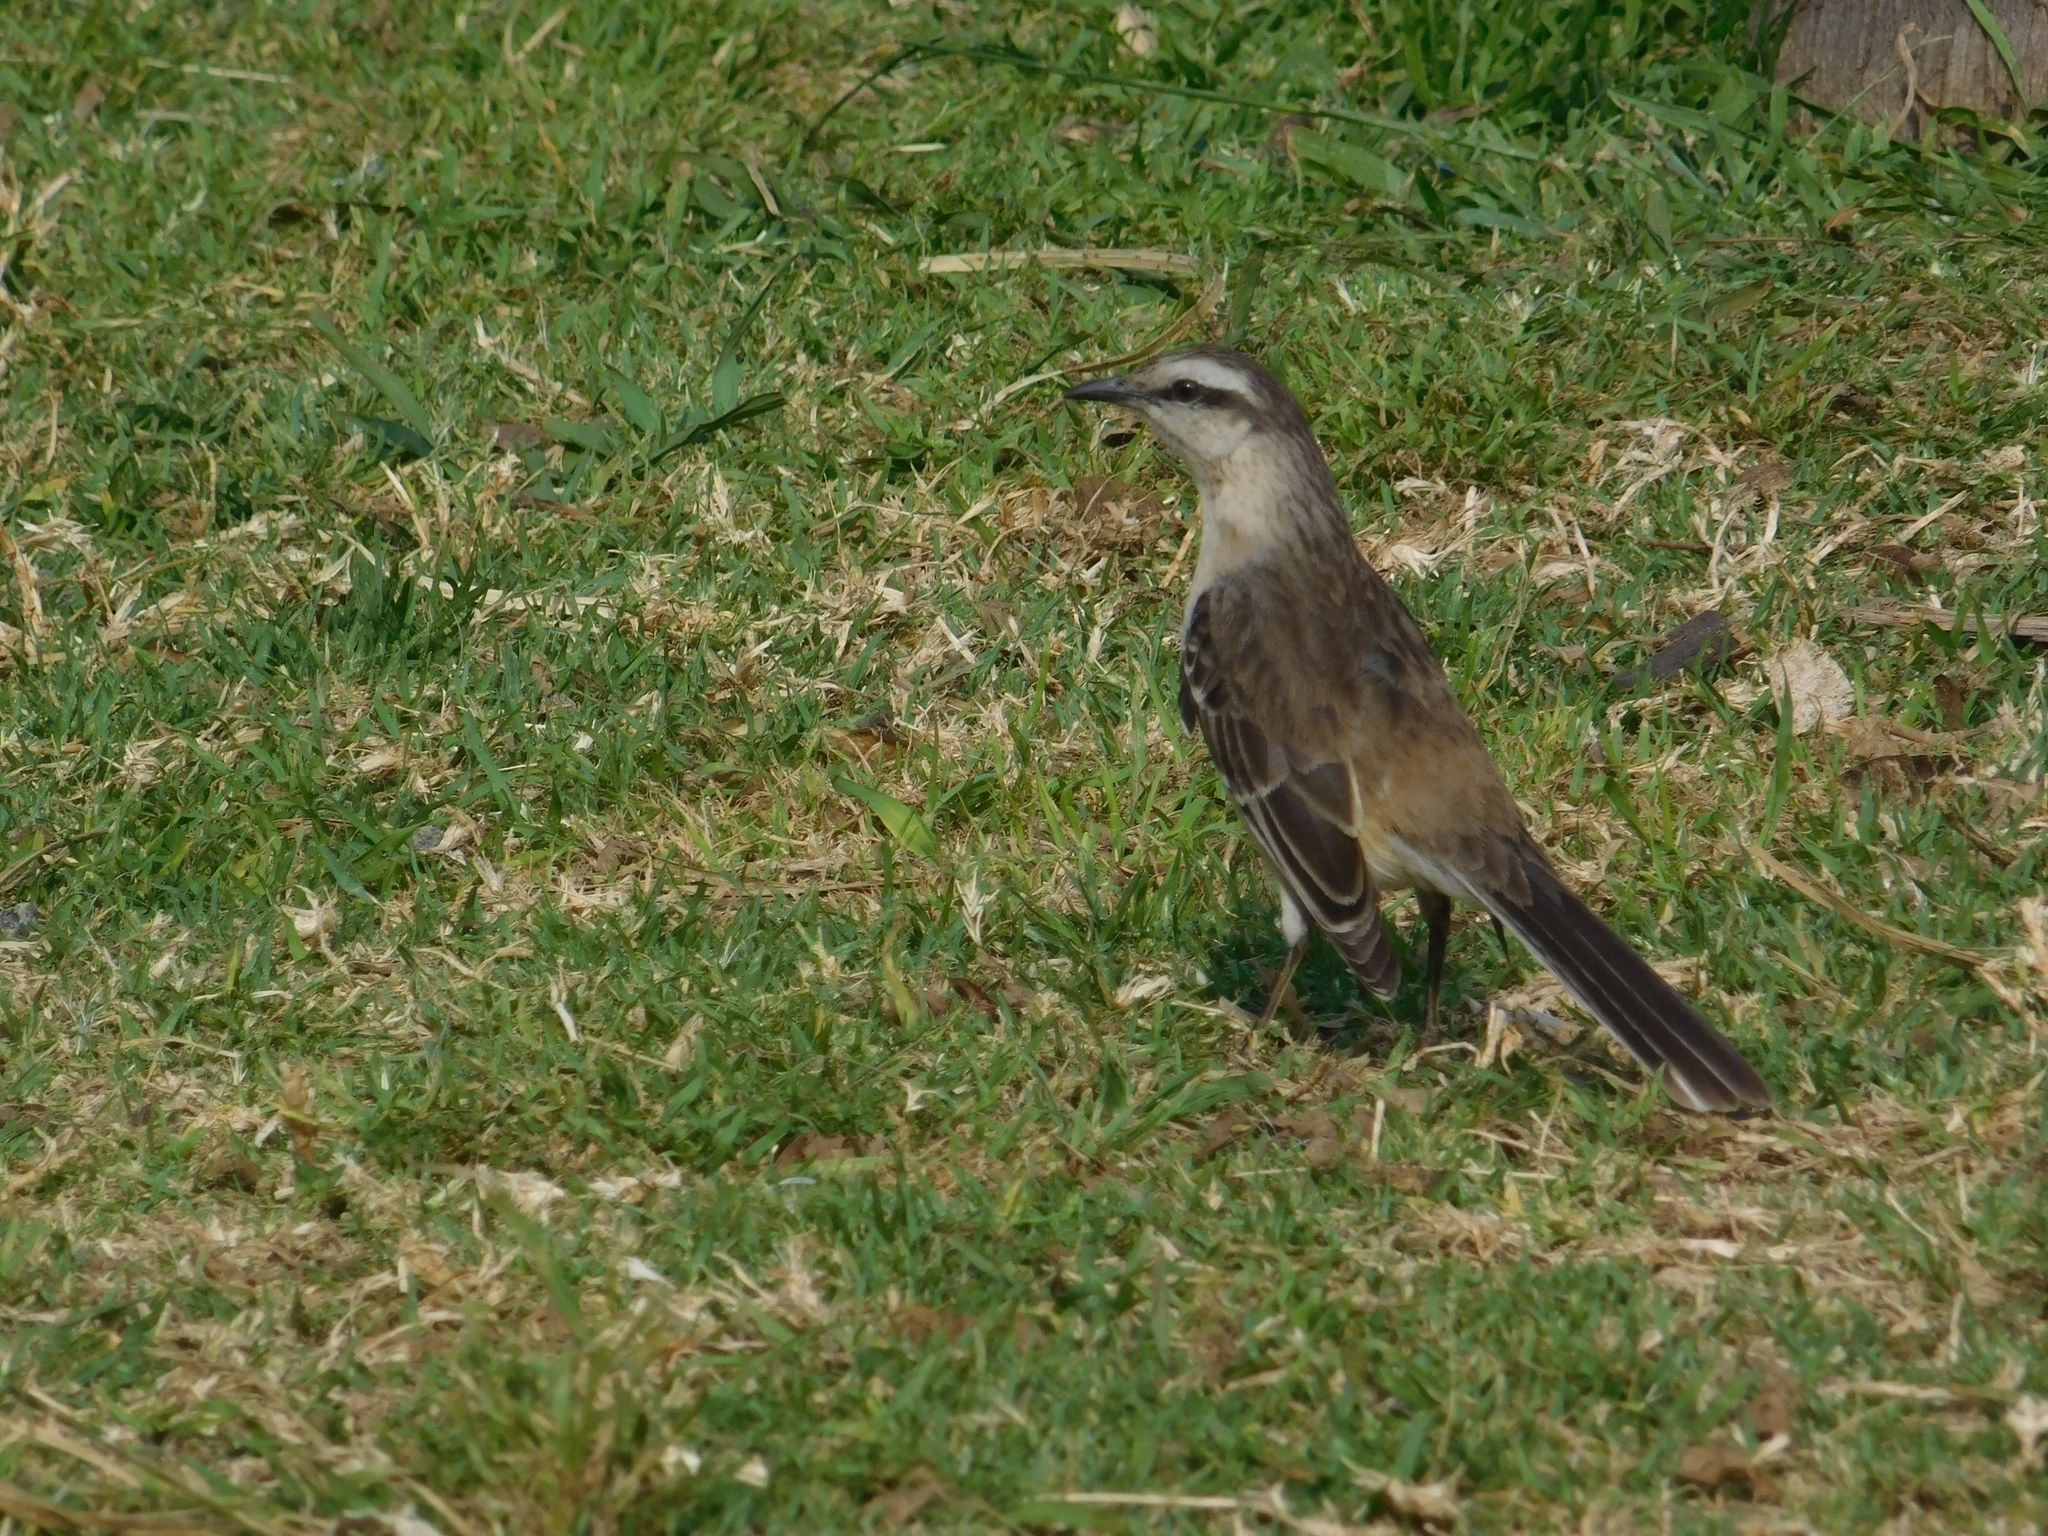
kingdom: Animalia
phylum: Chordata
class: Aves
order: Passeriformes
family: Mimidae
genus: Mimus
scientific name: Mimus saturninus
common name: Chalk-browed mockingbird
